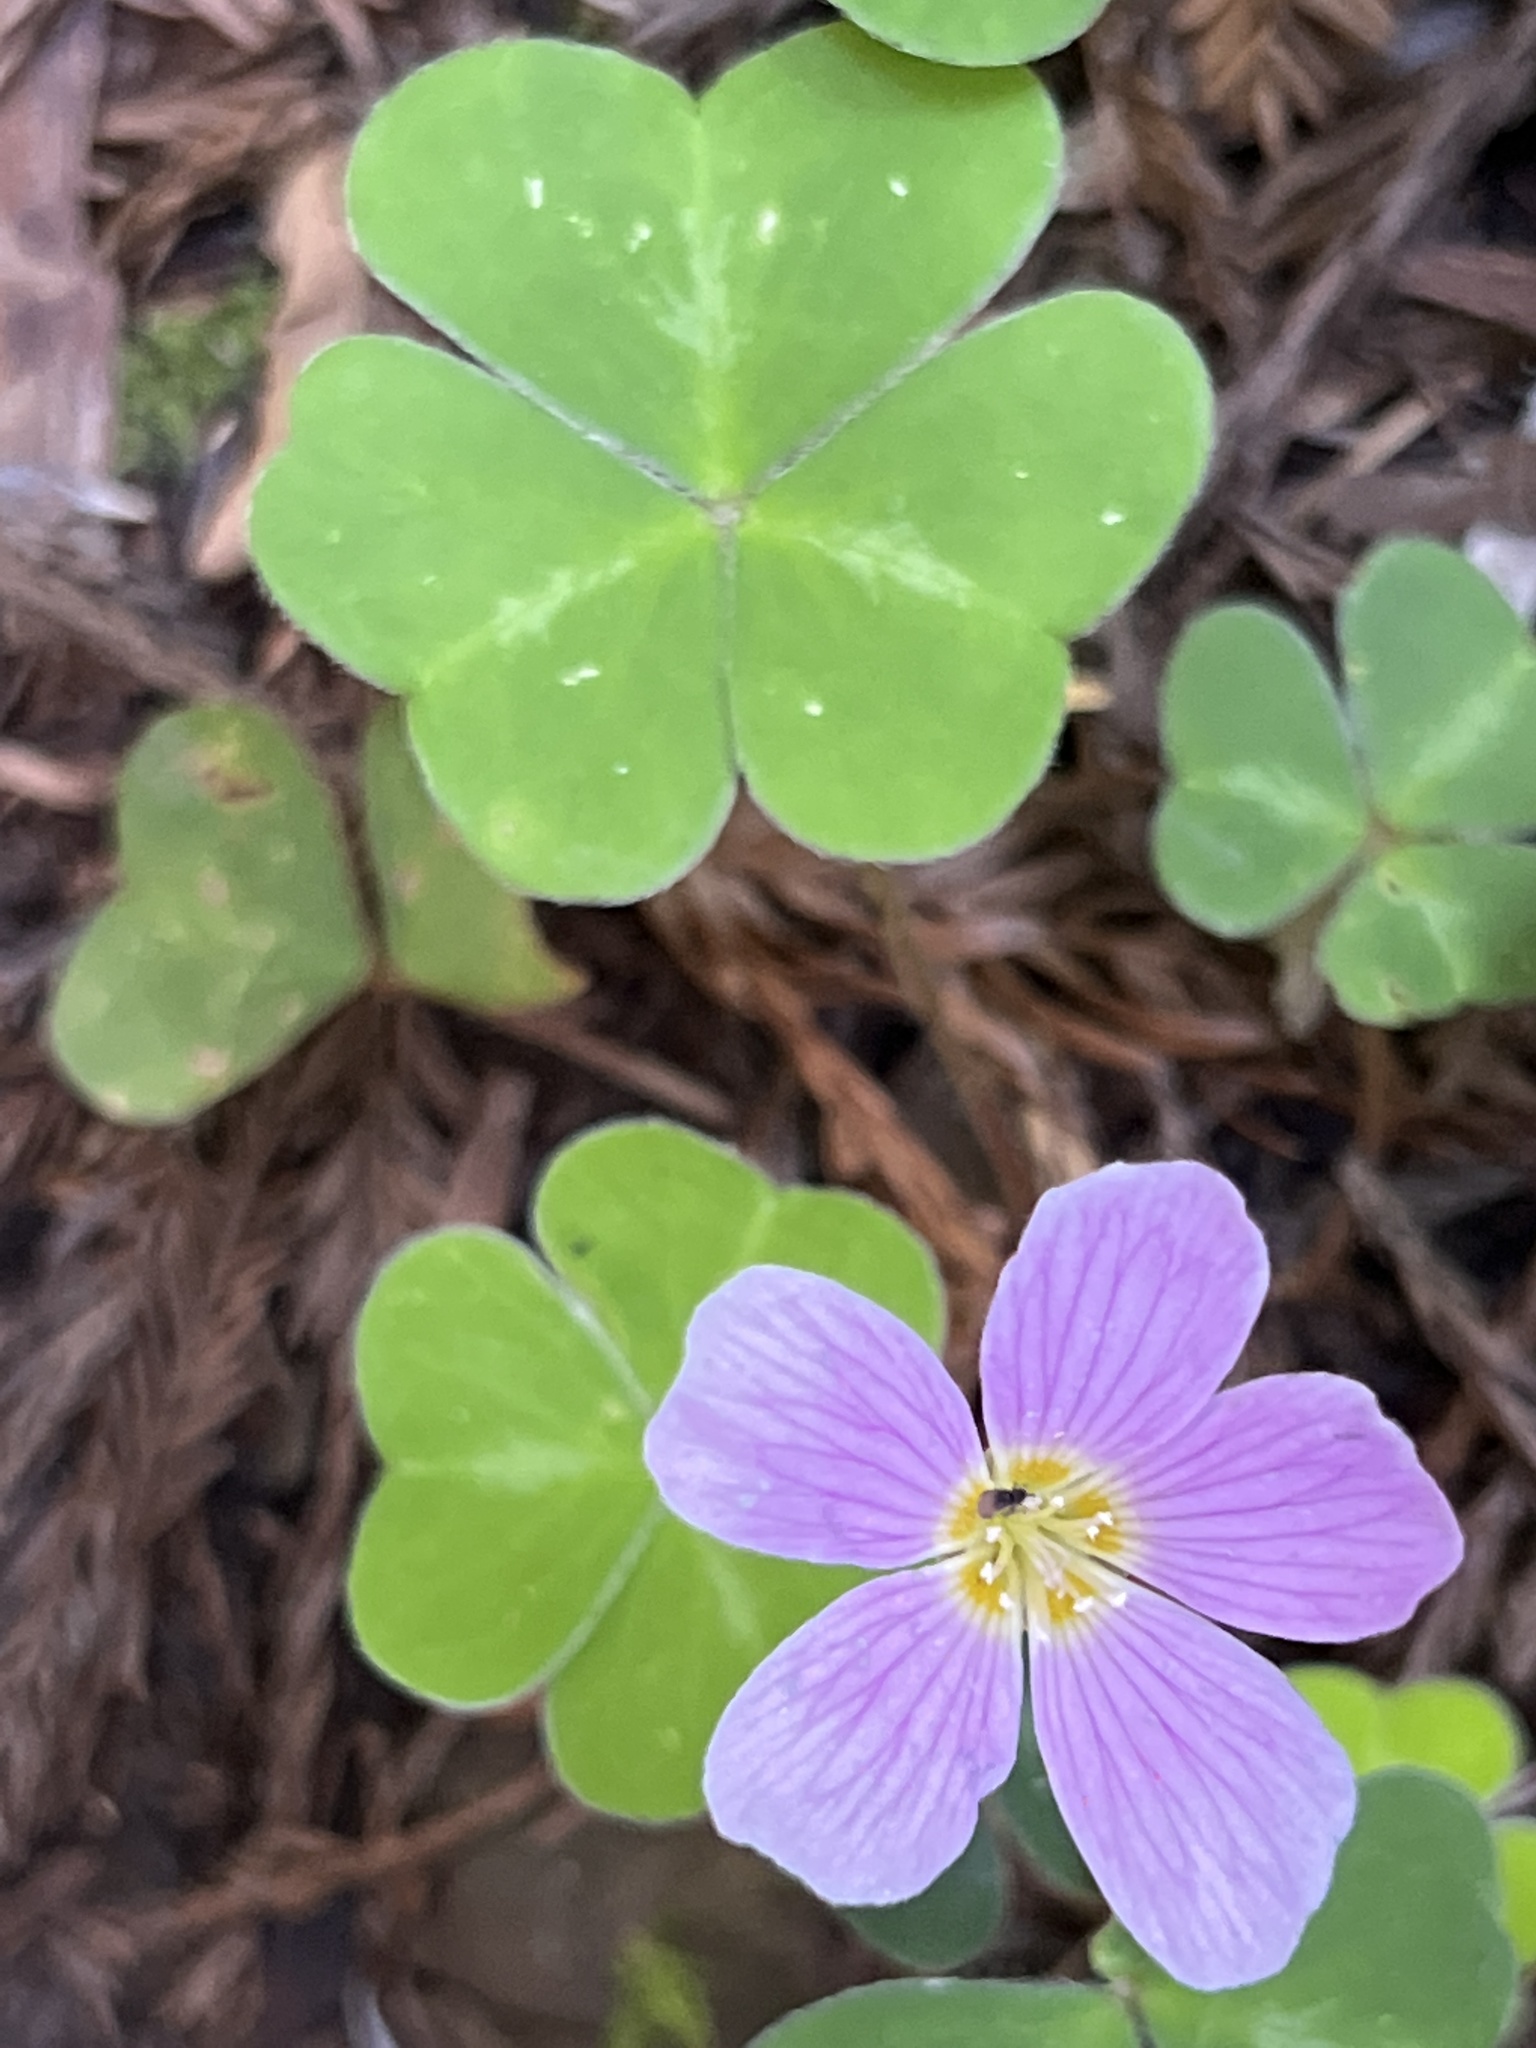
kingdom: Plantae
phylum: Tracheophyta
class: Magnoliopsida
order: Oxalidales
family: Oxalidaceae
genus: Oxalis
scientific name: Oxalis oregana
